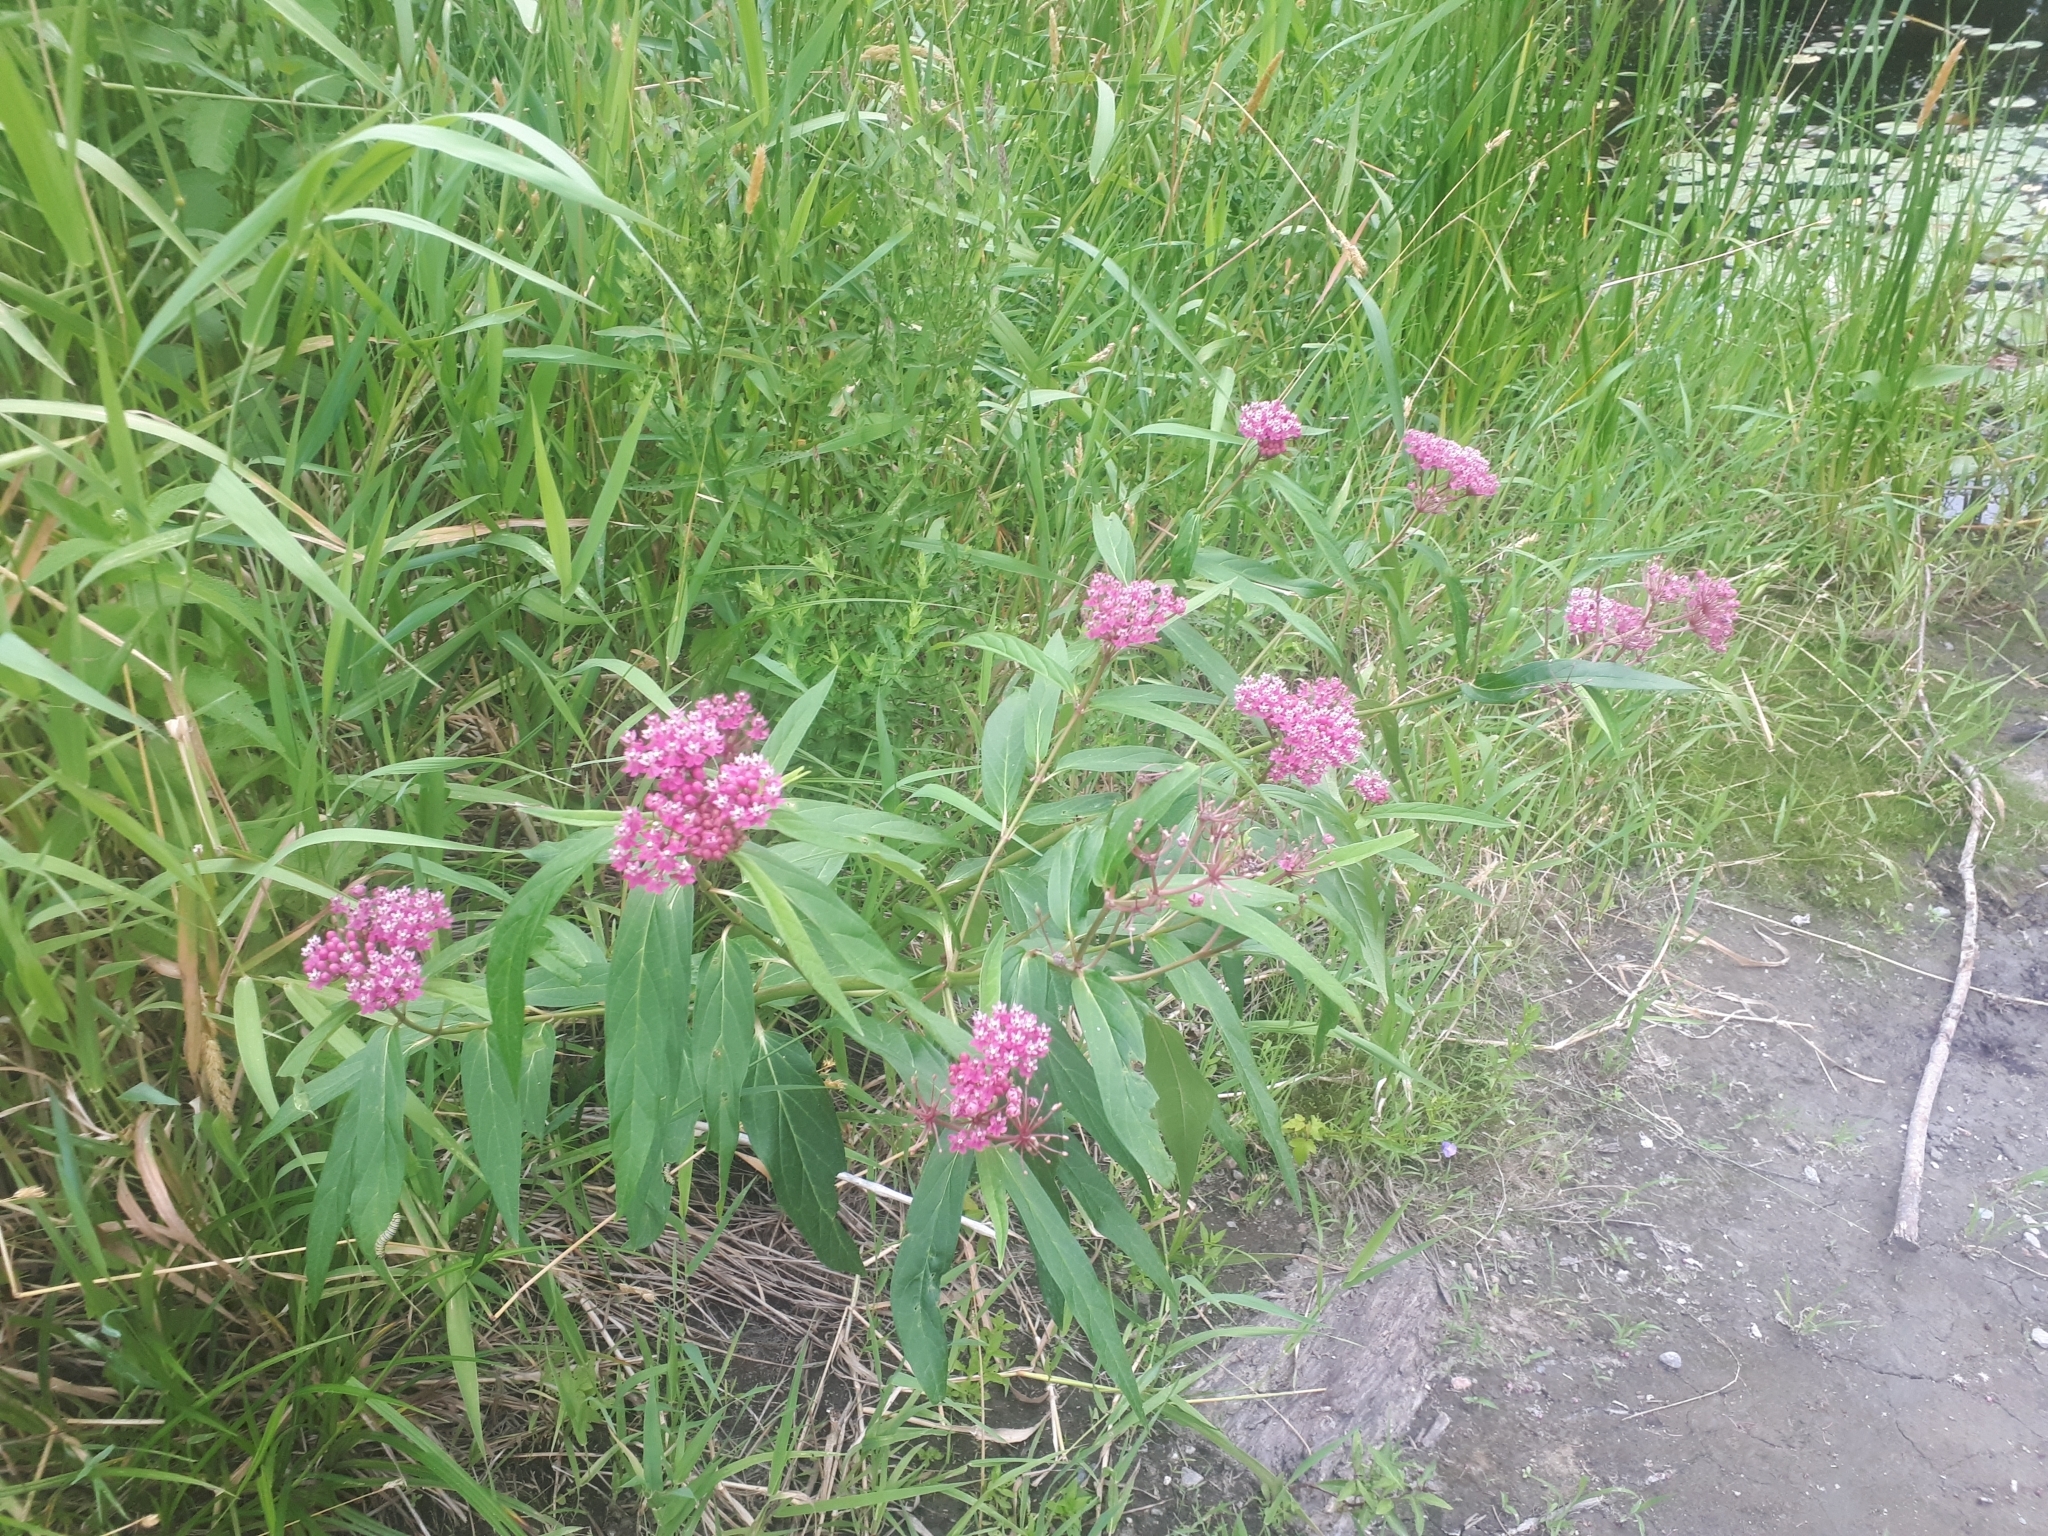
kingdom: Plantae
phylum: Tracheophyta
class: Magnoliopsida
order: Gentianales
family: Apocynaceae
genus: Asclepias
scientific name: Asclepias incarnata
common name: Swamp milkweed
